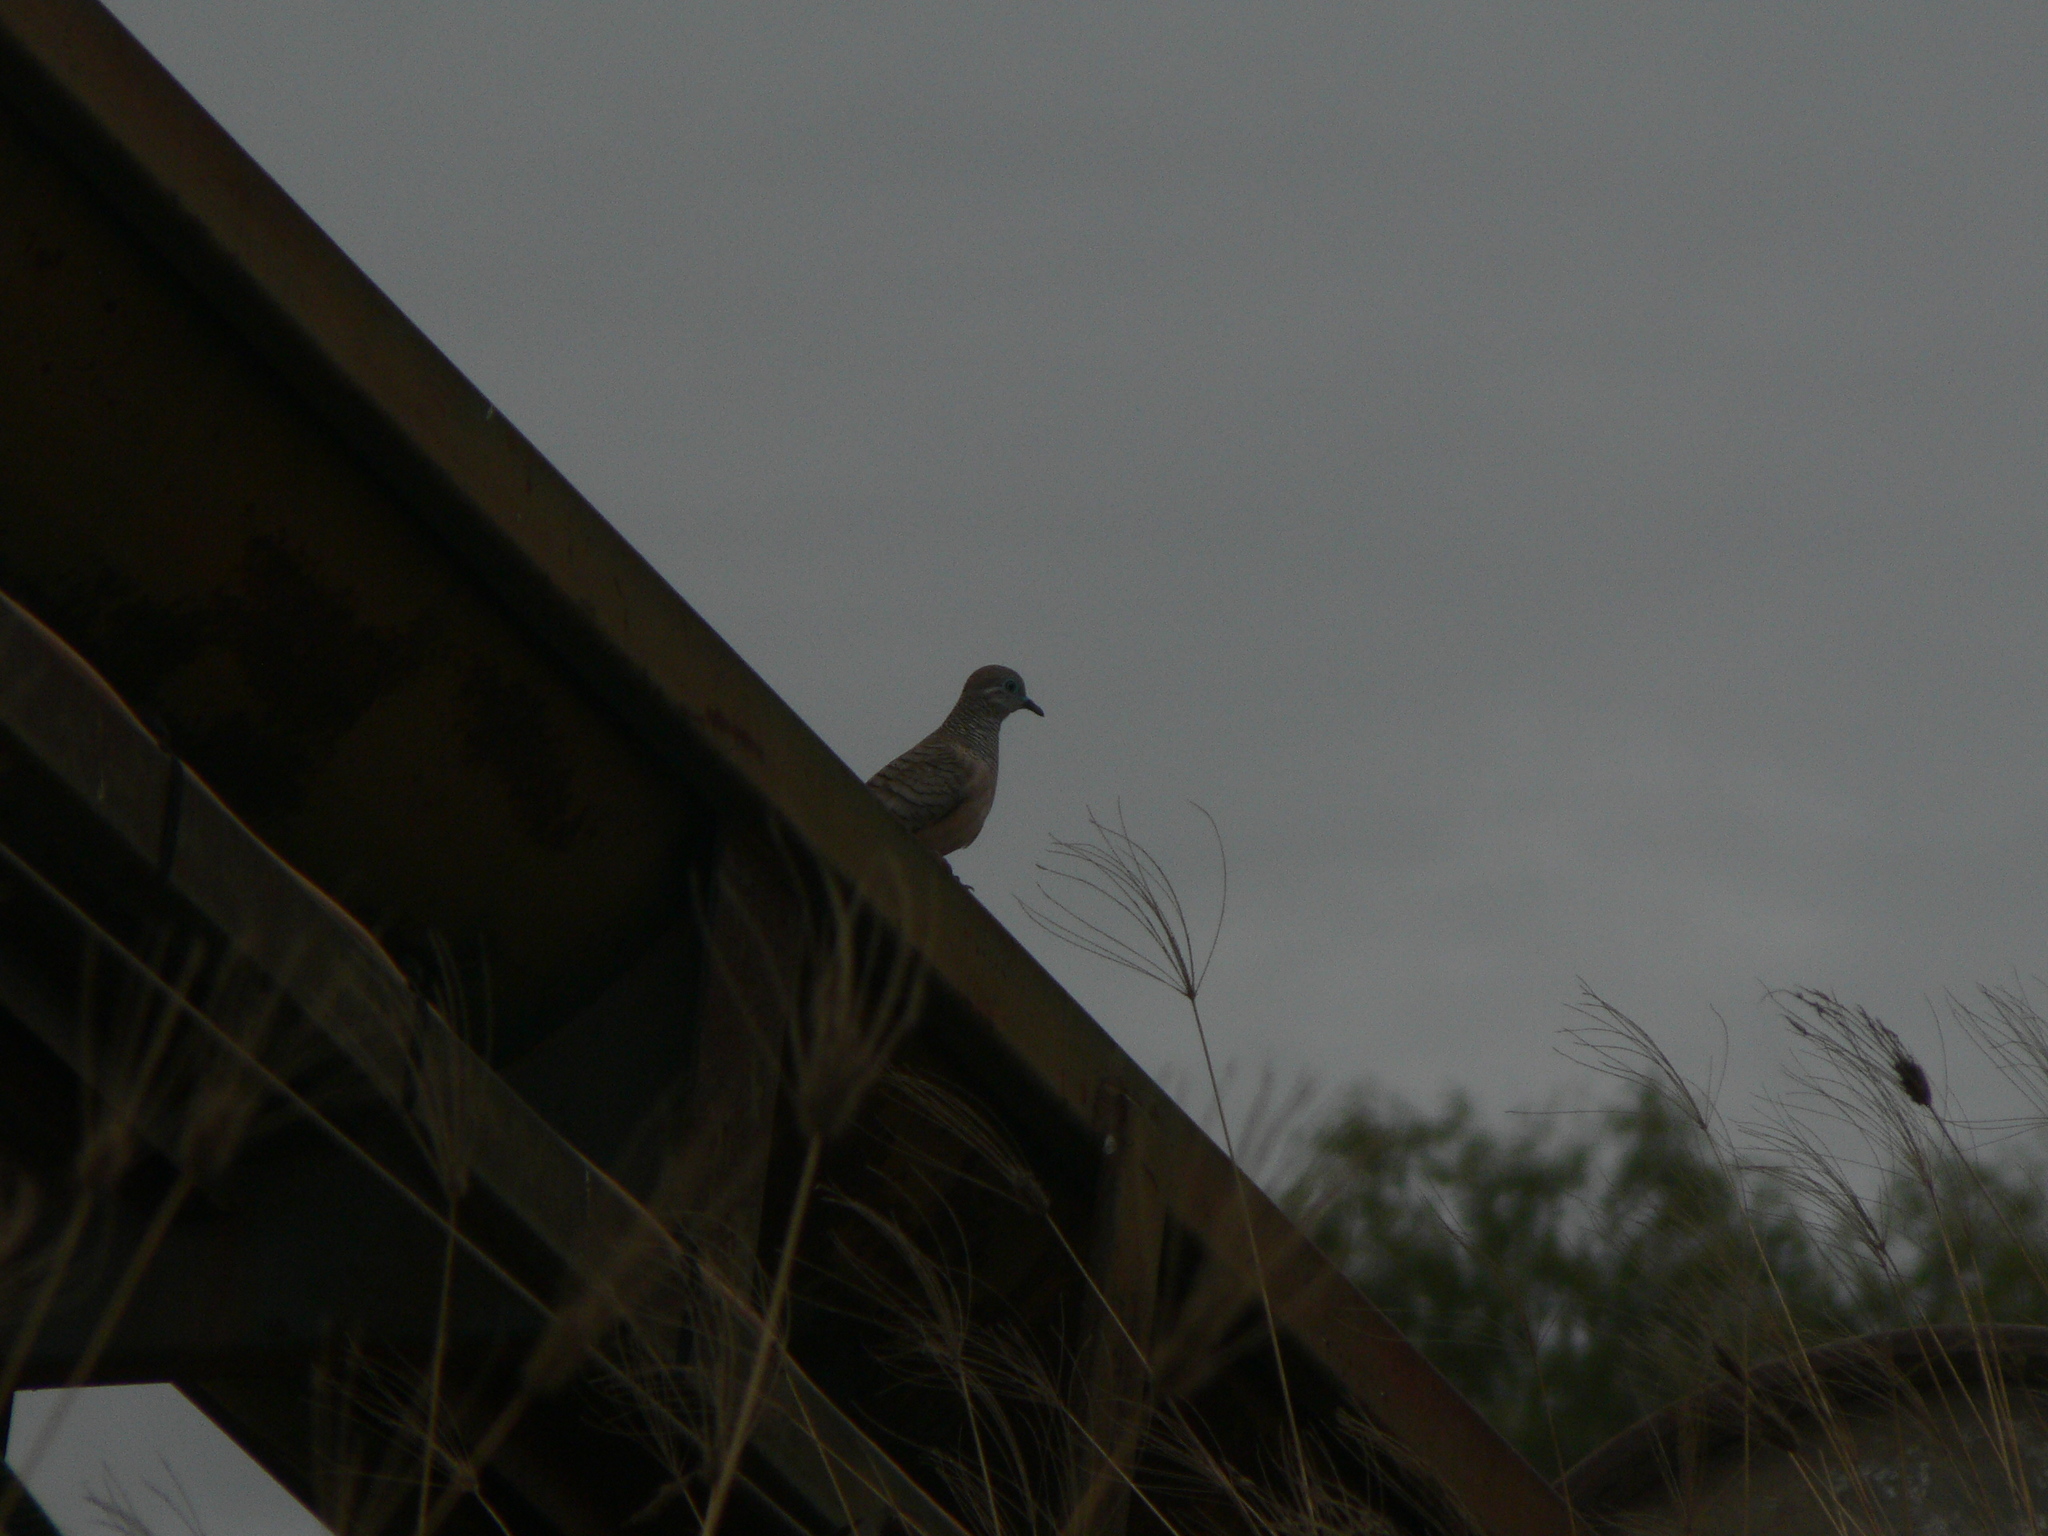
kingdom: Animalia
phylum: Chordata
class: Aves
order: Columbiformes
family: Columbidae
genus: Geopelia
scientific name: Geopelia placida
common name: Peaceful dove
